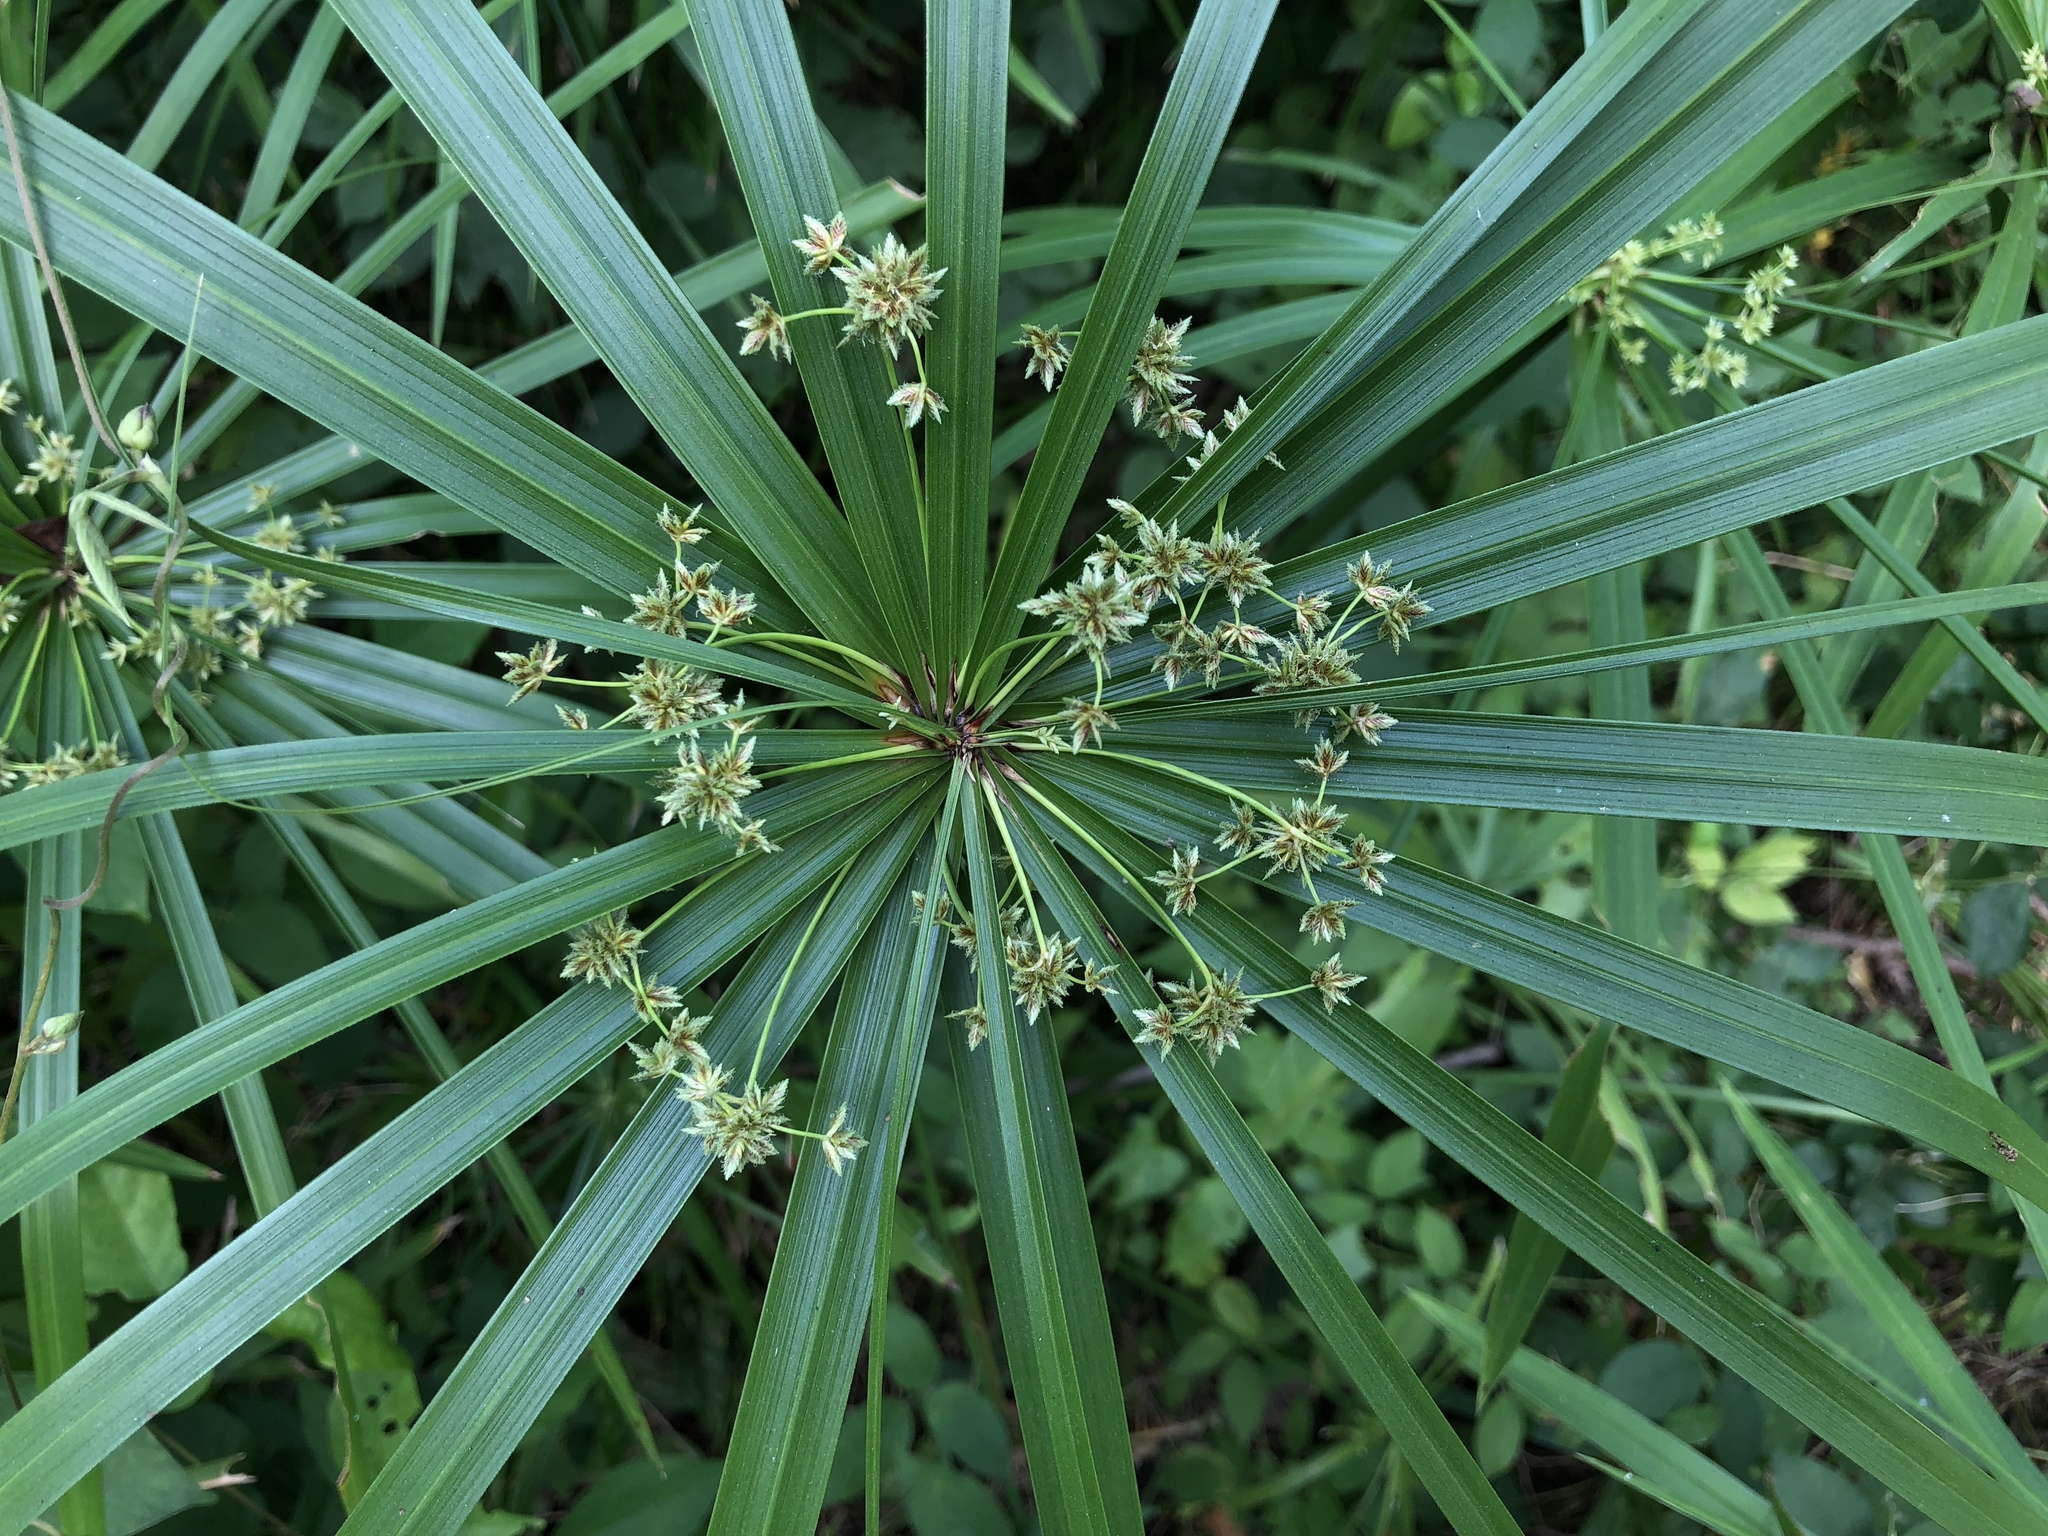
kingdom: Plantae
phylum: Tracheophyta
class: Liliopsida
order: Poales
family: Cyperaceae
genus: Cyperus
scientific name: Cyperus alternifolius
